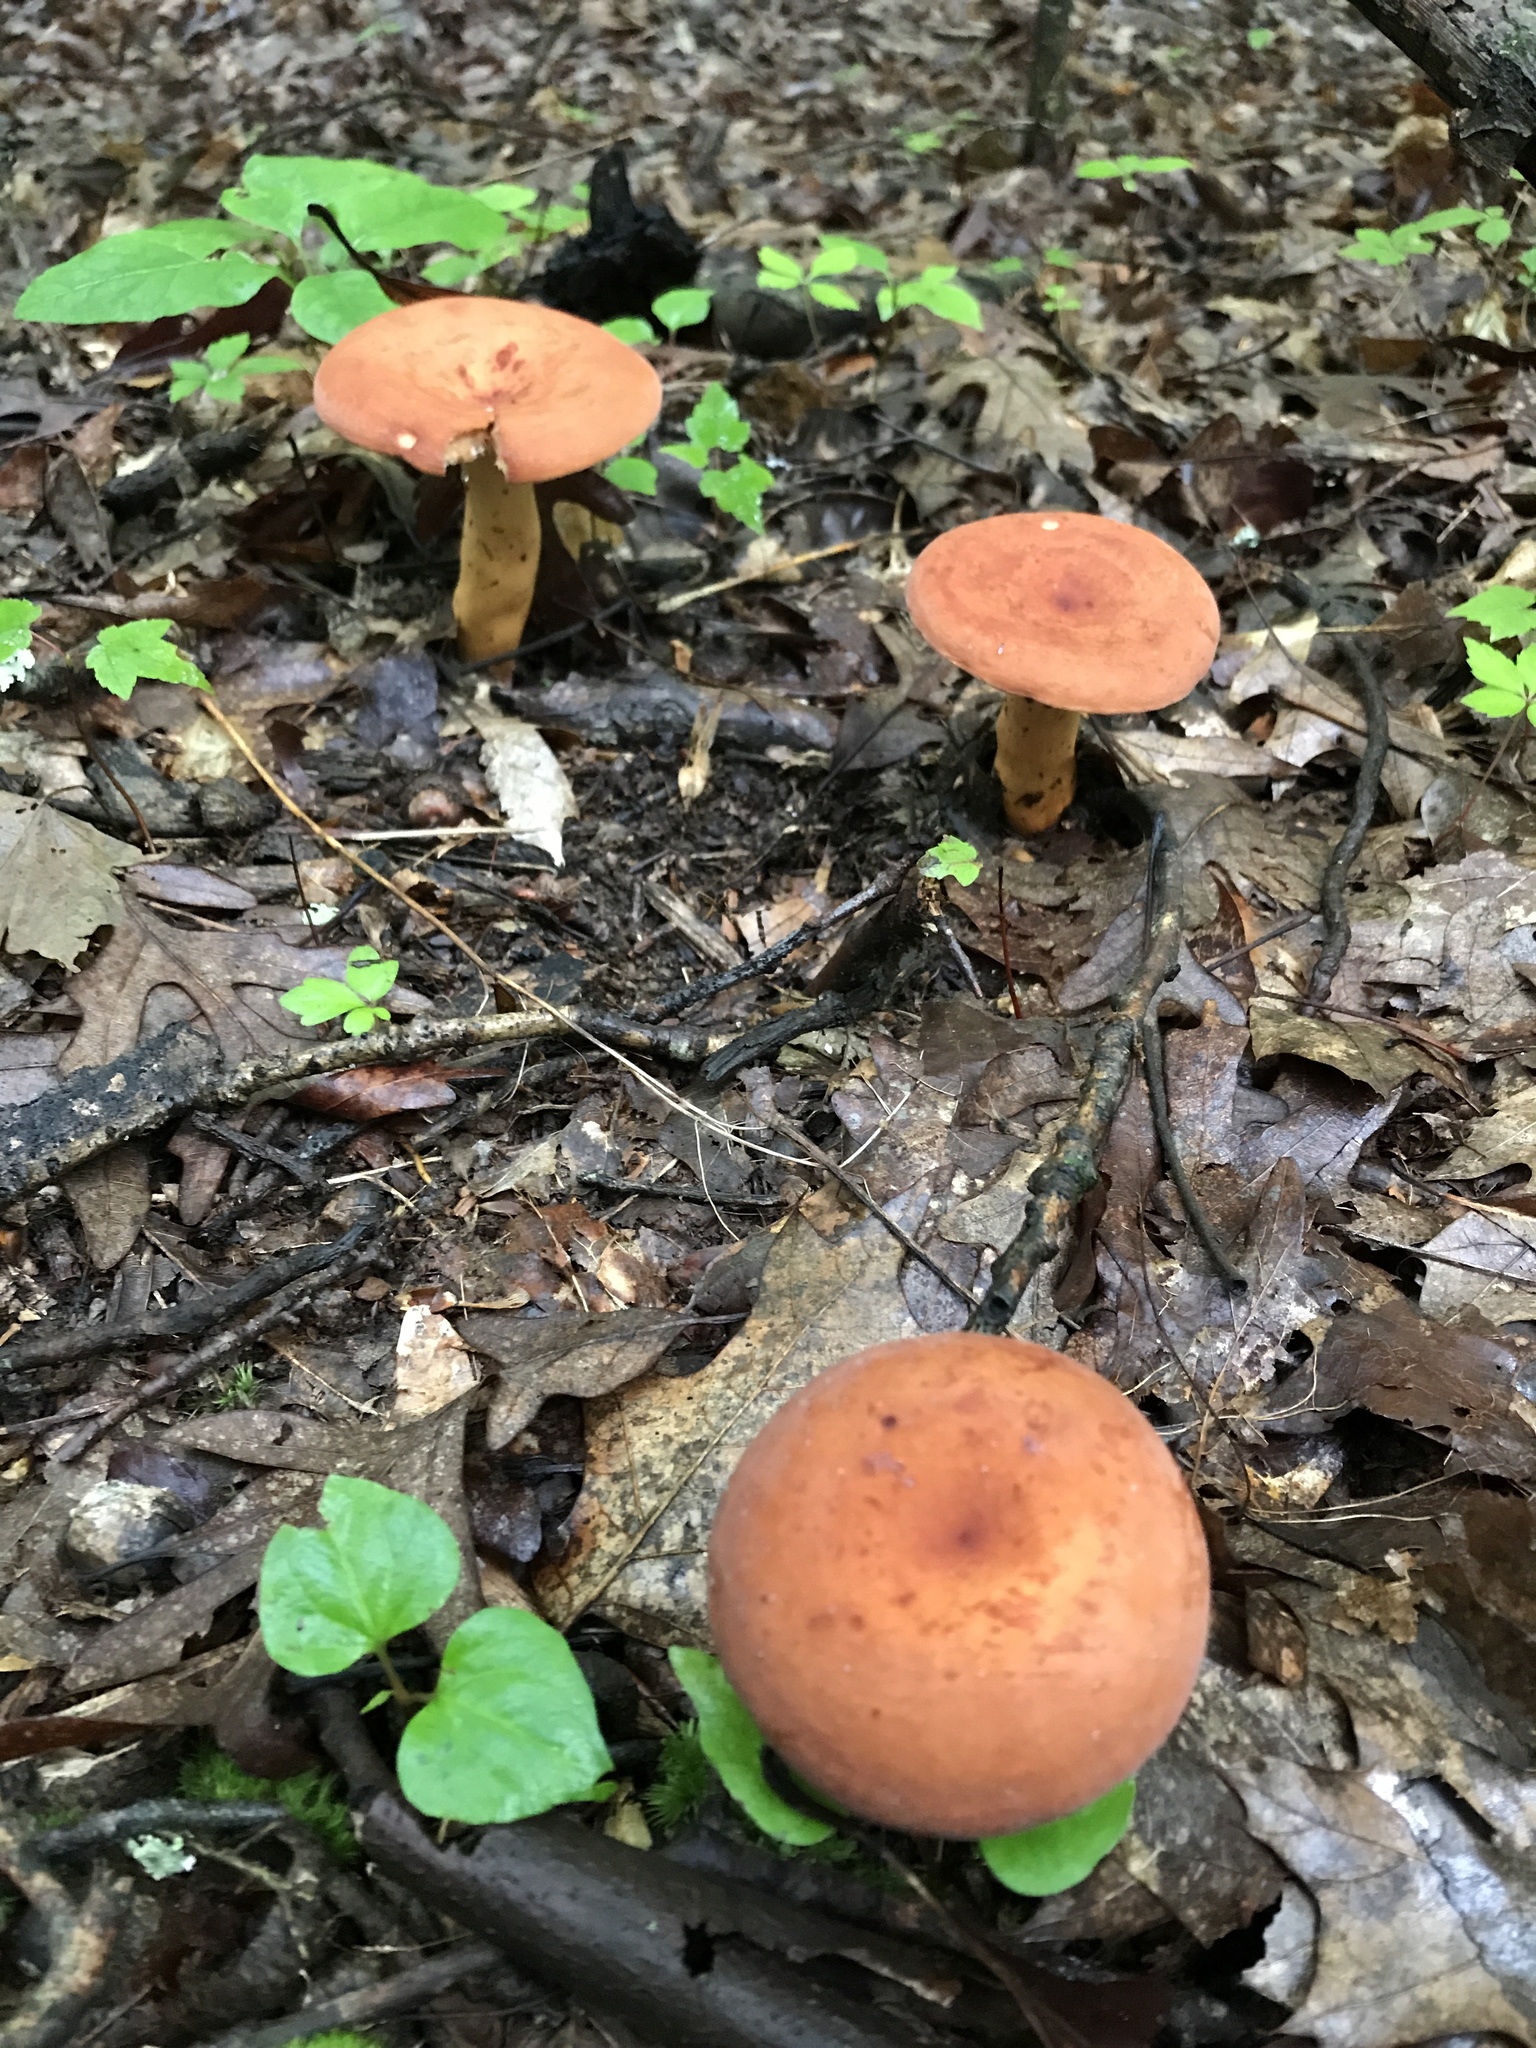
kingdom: Fungi
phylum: Basidiomycota
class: Agaricomycetes
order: Russulales
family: Russulaceae
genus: Lactifluus
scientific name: Lactifluus volemus
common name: Fishy milkcap
